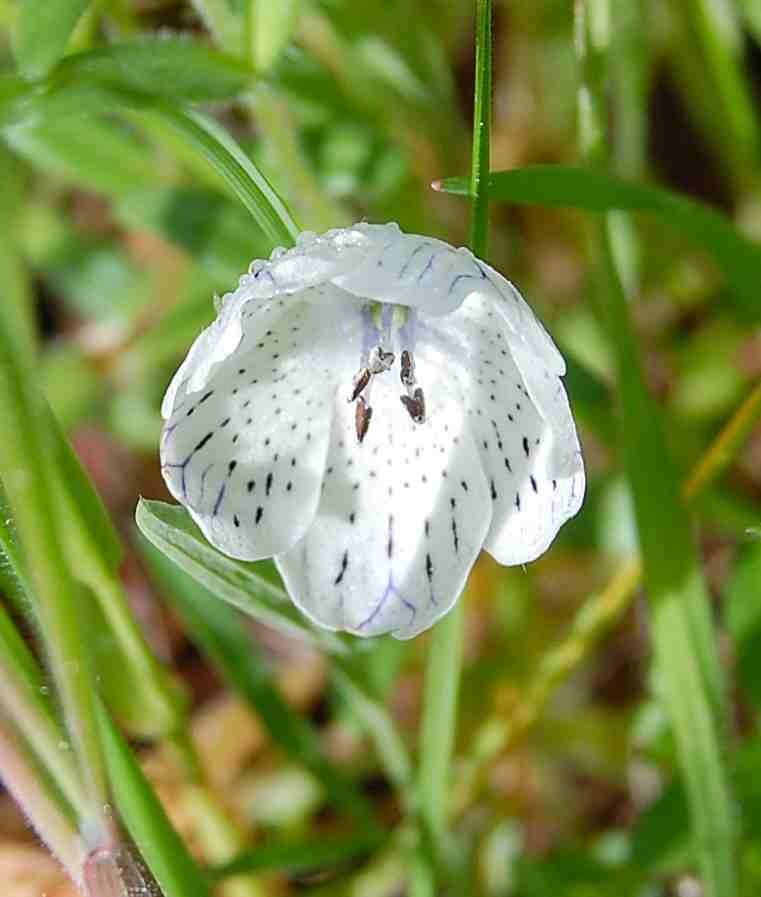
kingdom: Plantae
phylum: Tracheophyta
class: Magnoliopsida
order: Boraginales
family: Hydrophyllaceae
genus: Nemophila
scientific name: Nemophila menziesii
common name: Baby's-blue-eyes
